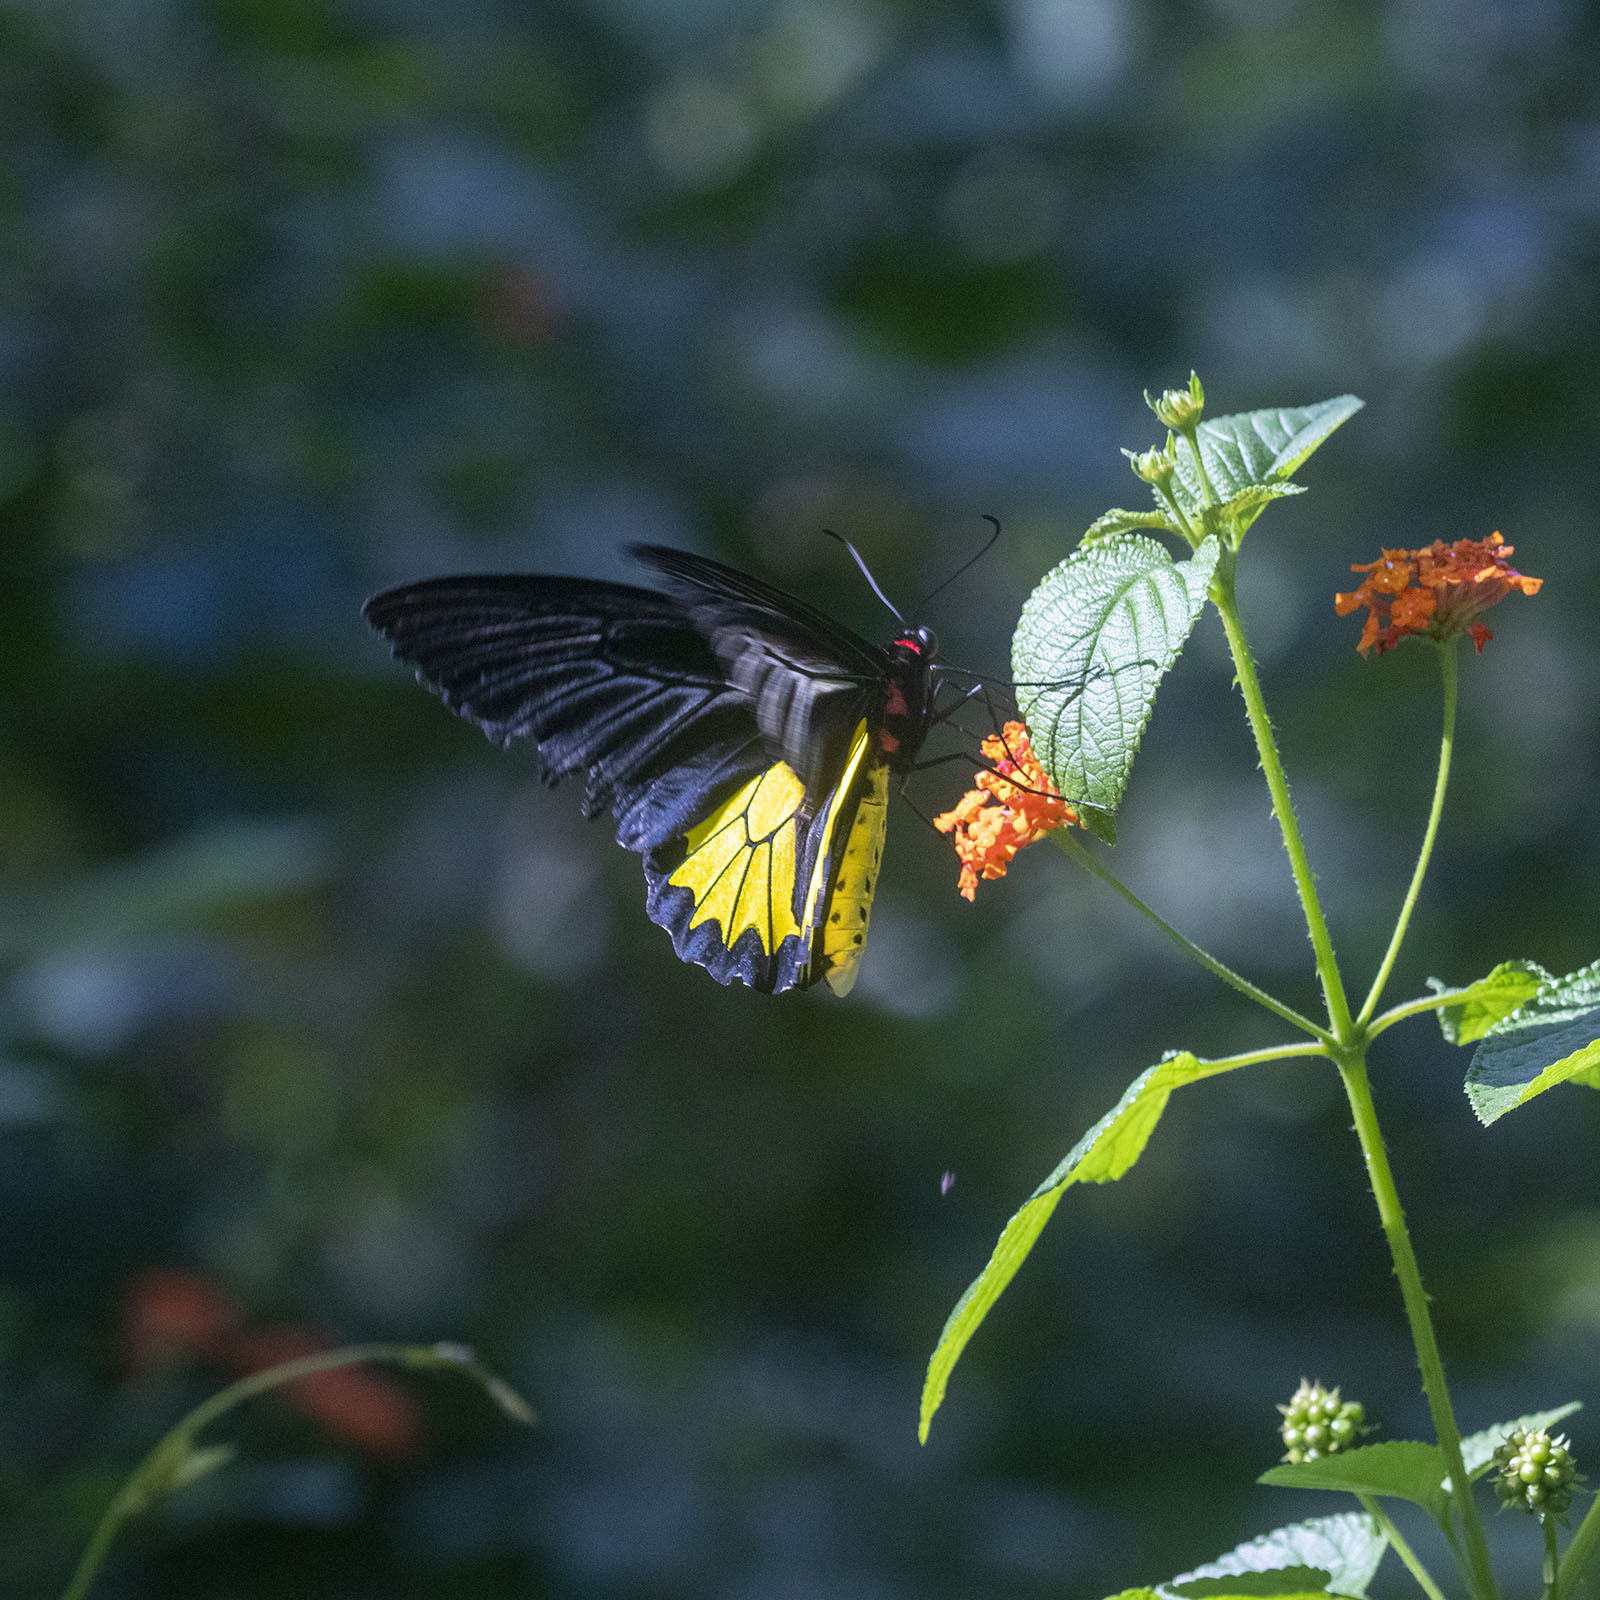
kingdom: Animalia
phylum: Arthropoda
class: Insecta
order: Lepidoptera
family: Papilionidae
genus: Troides
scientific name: Troides minos
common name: Malabar birdwing
